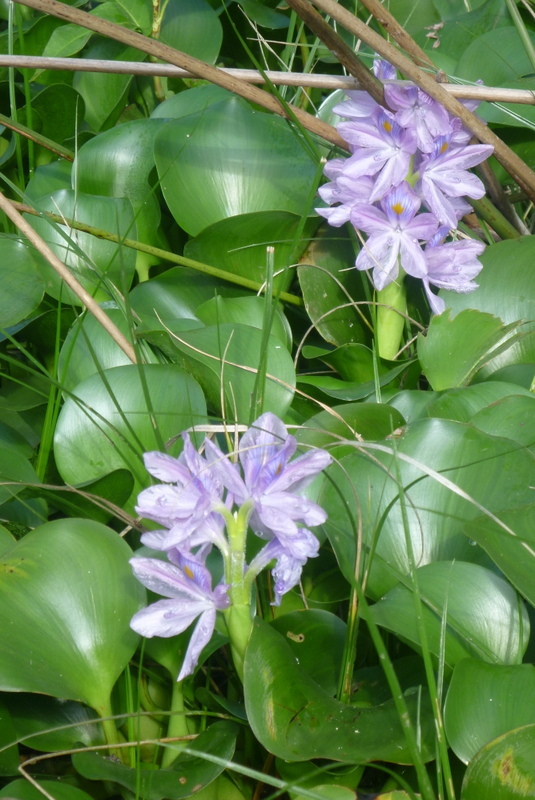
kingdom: Plantae
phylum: Tracheophyta
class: Liliopsida
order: Commelinales
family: Pontederiaceae
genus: Pontederia
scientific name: Pontederia crassipes
